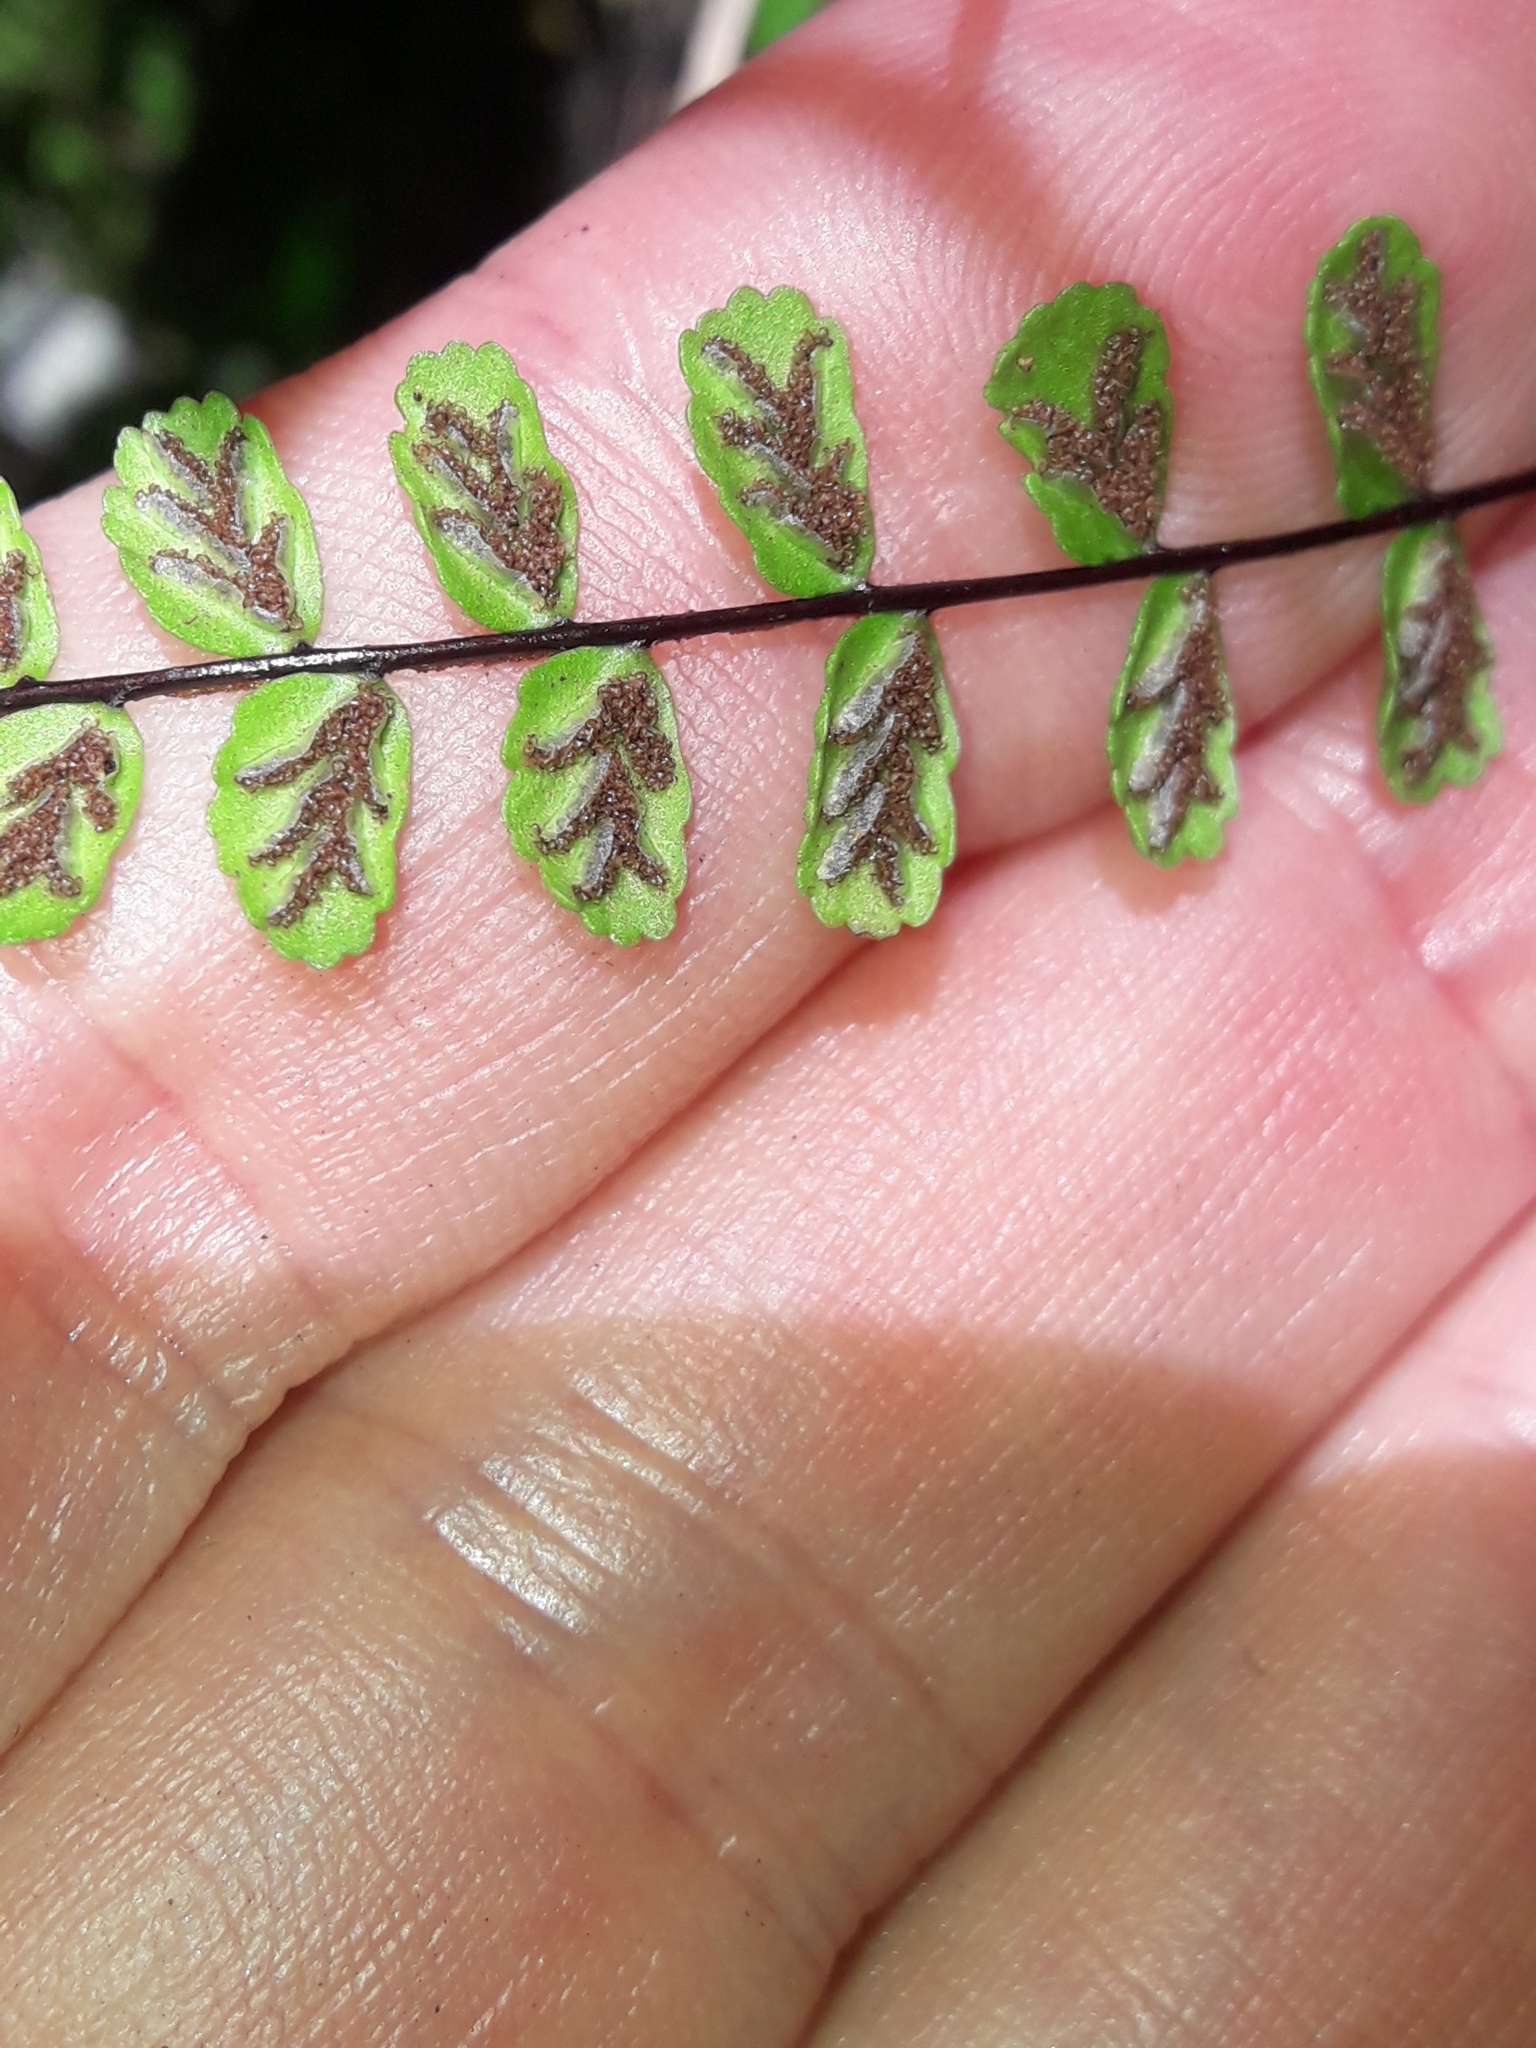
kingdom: Plantae
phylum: Tracheophyta
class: Polypodiopsida
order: Polypodiales
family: Aspleniaceae
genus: Asplenium
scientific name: Asplenium trichomanes
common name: Maidenhair spleenwort
